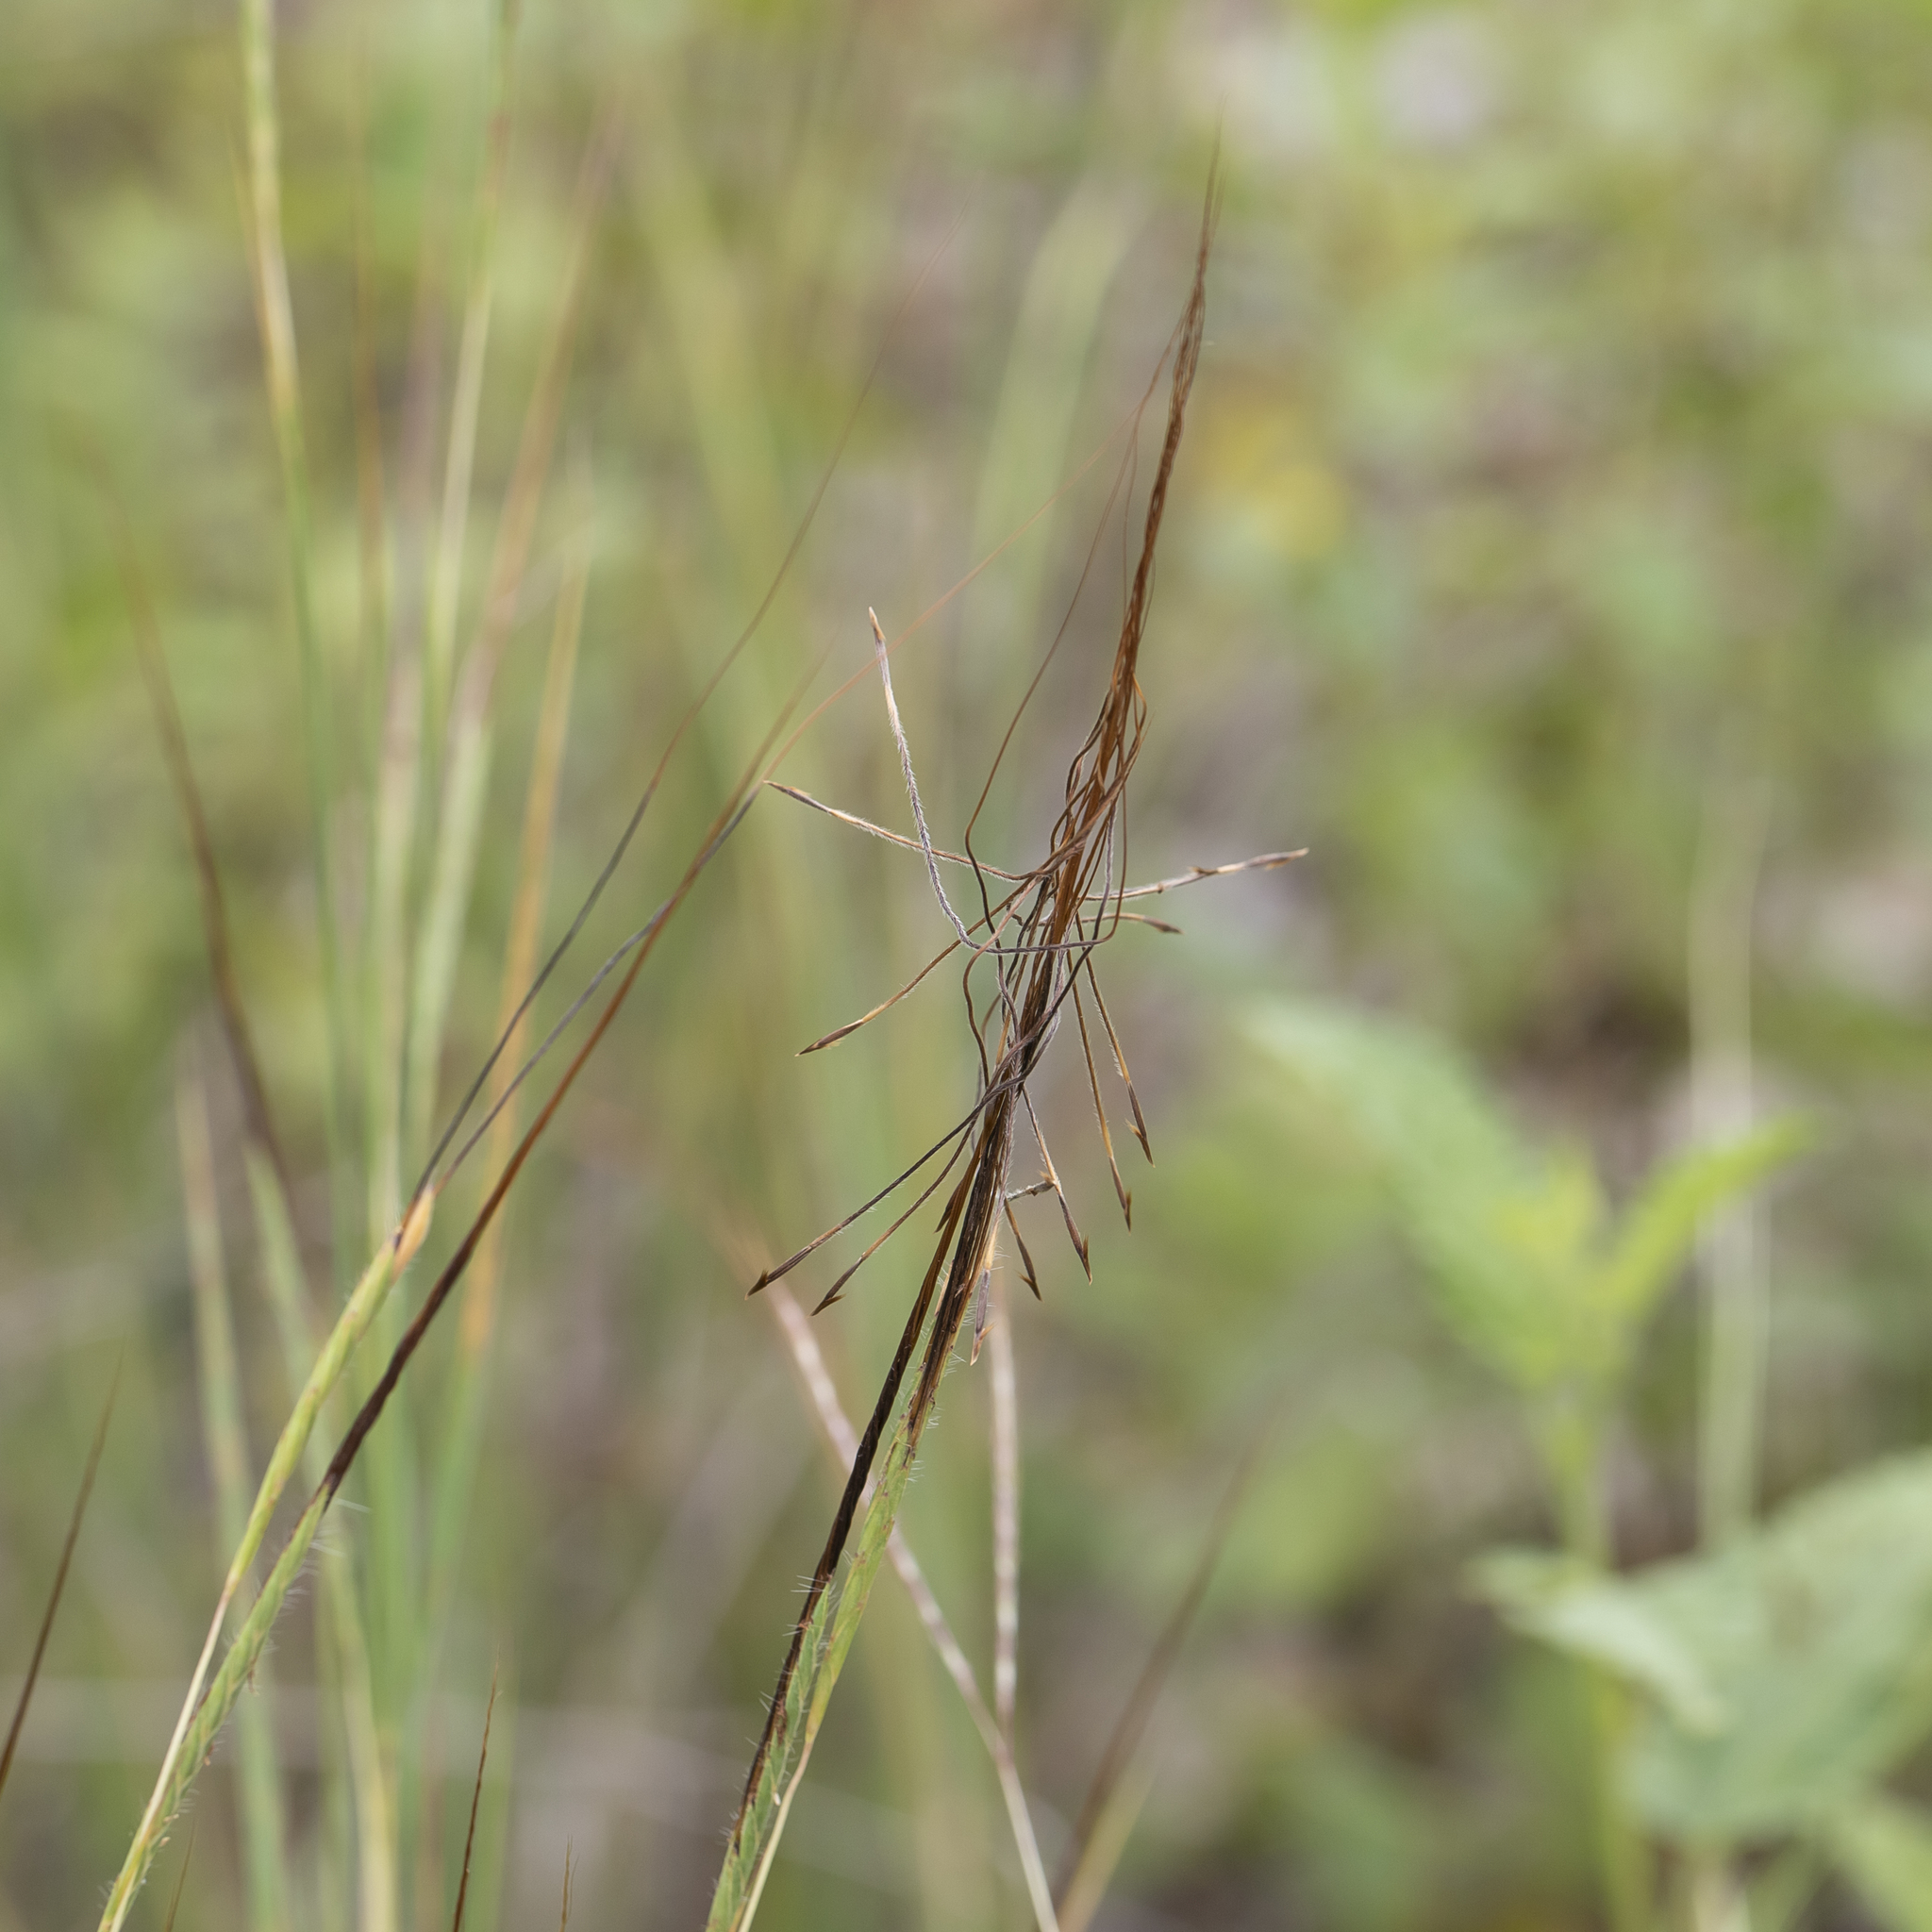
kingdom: Plantae
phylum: Tracheophyta
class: Liliopsida
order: Poales
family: Poaceae
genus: Heteropogon
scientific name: Heteropogon contortus
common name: Tanglehead
